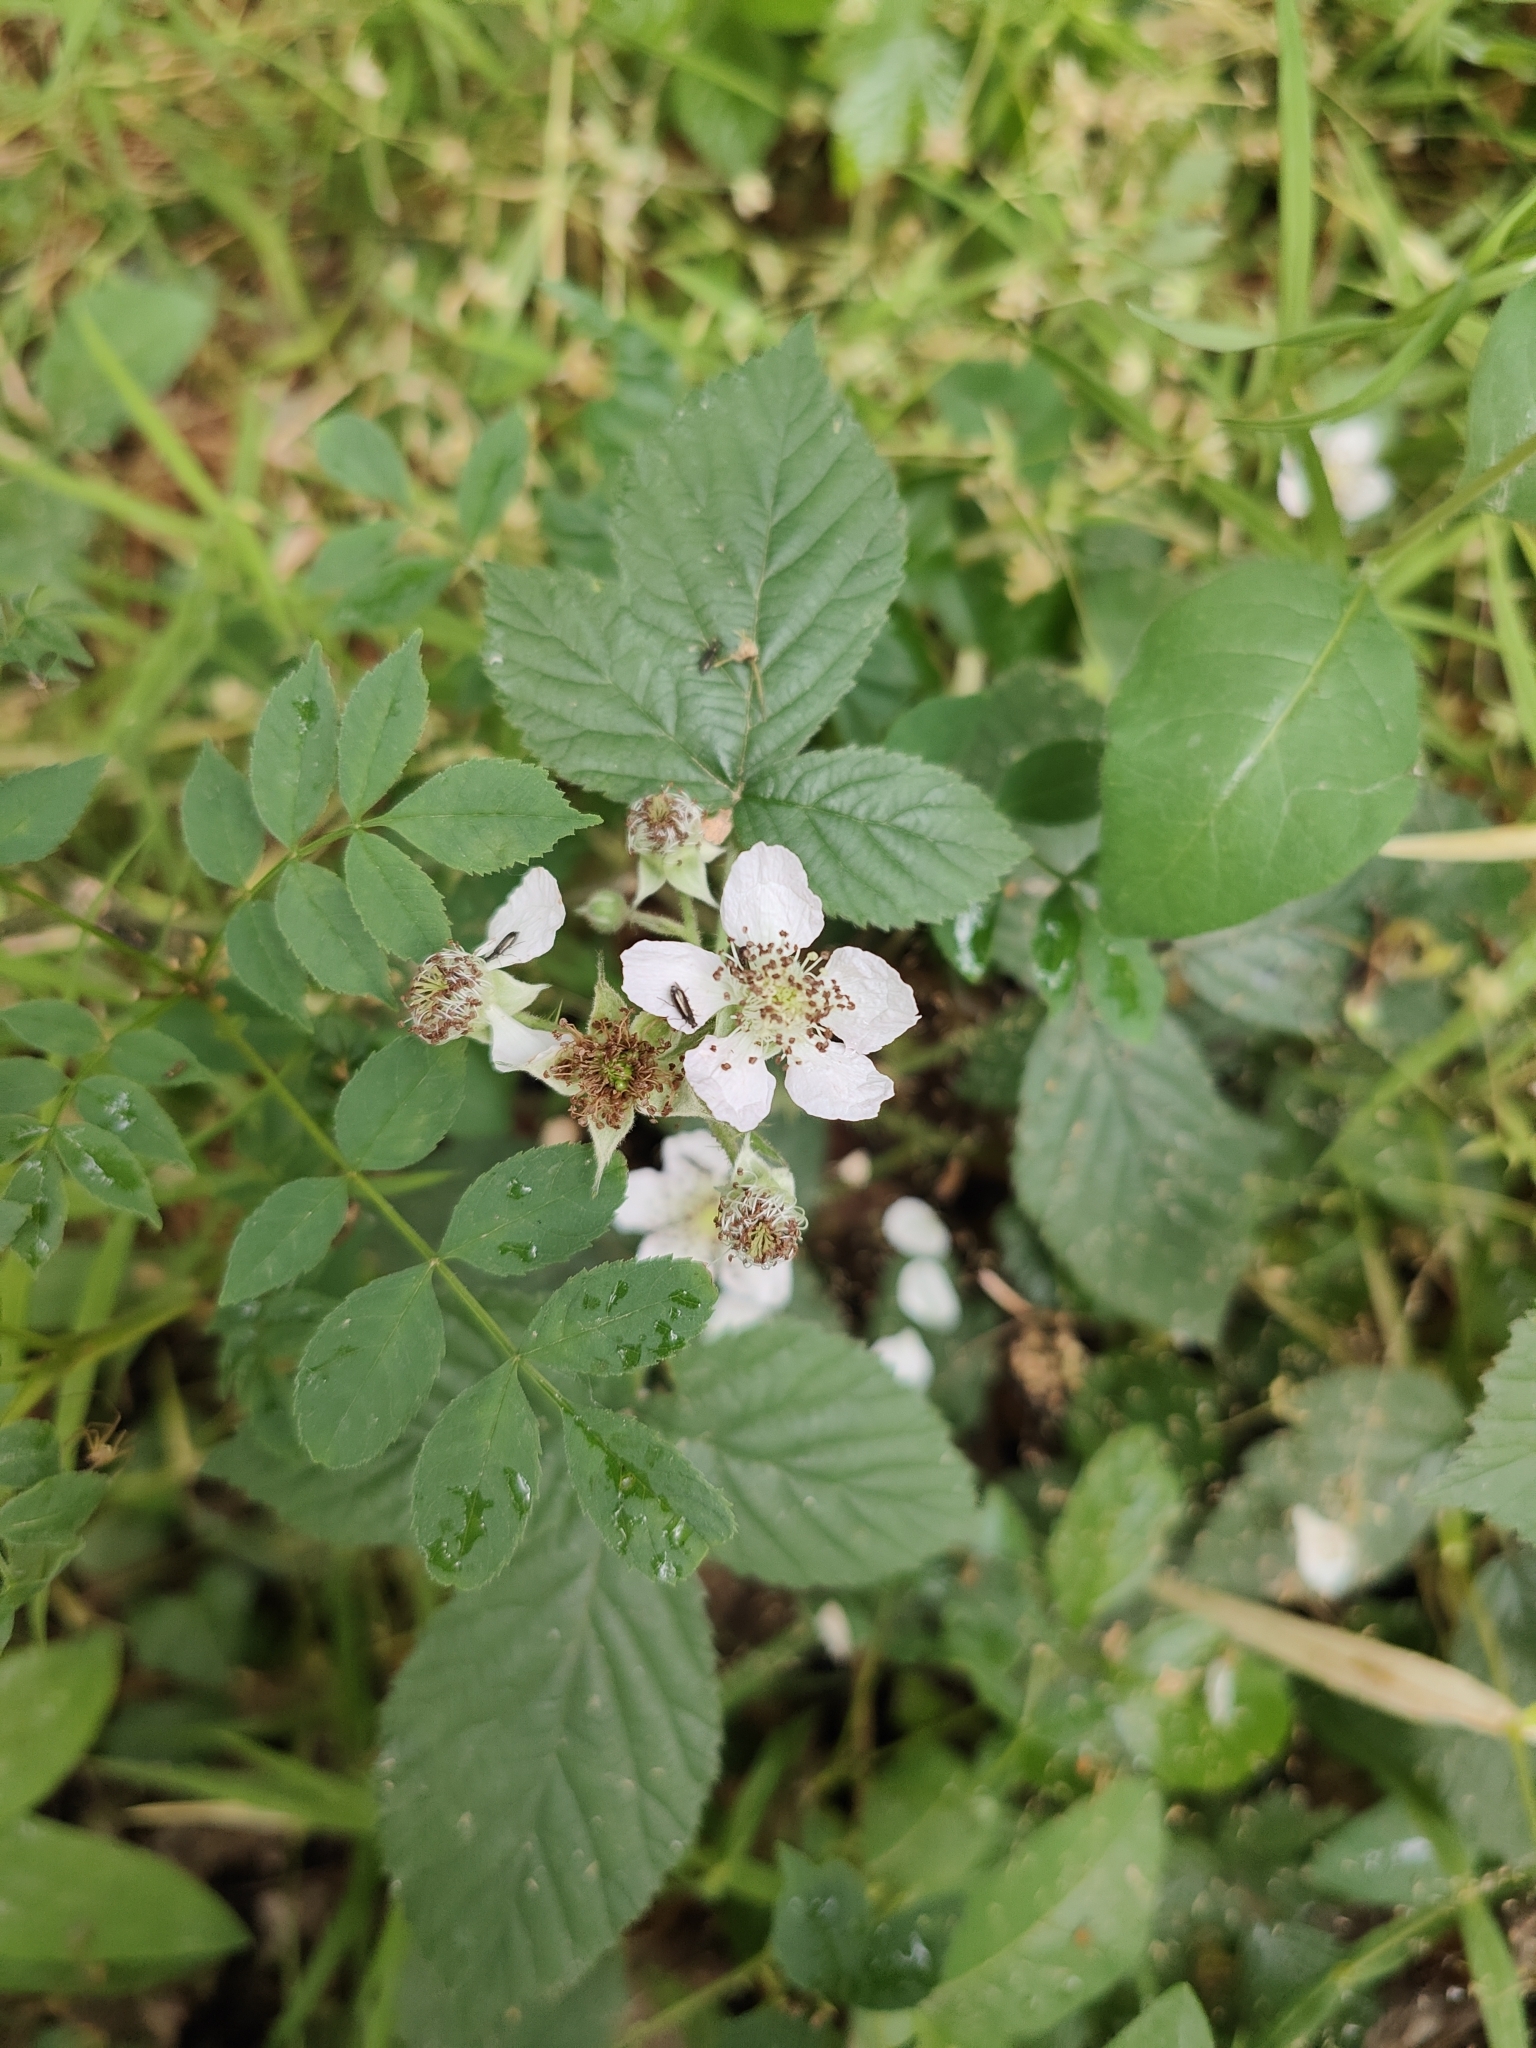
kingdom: Plantae
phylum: Tracheophyta
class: Magnoliopsida
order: Rosales
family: Rosaceae
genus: Rubus
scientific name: Rubus caesius
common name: Dewberry
